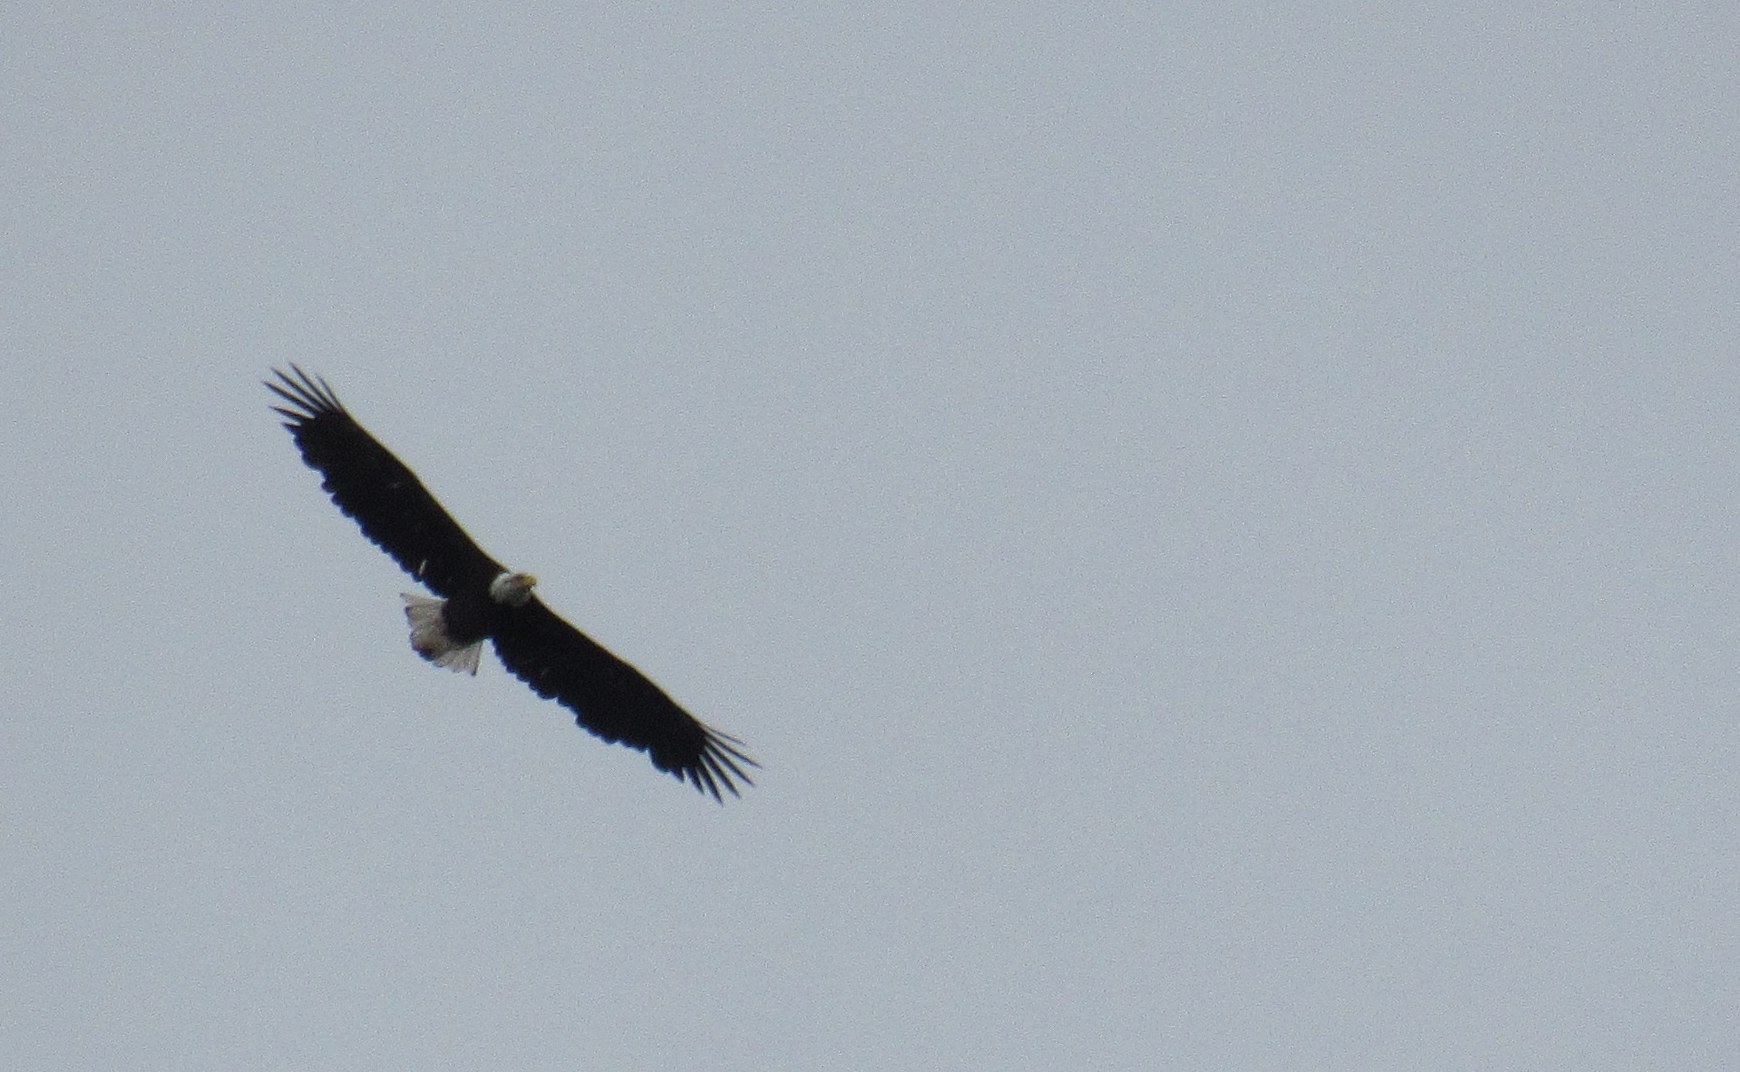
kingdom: Animalia
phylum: Chordata
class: Aves
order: Accipitriformes
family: Accipitridae
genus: Haliaeetus
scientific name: Haliaeetus leucocephalus
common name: Bald eagle
